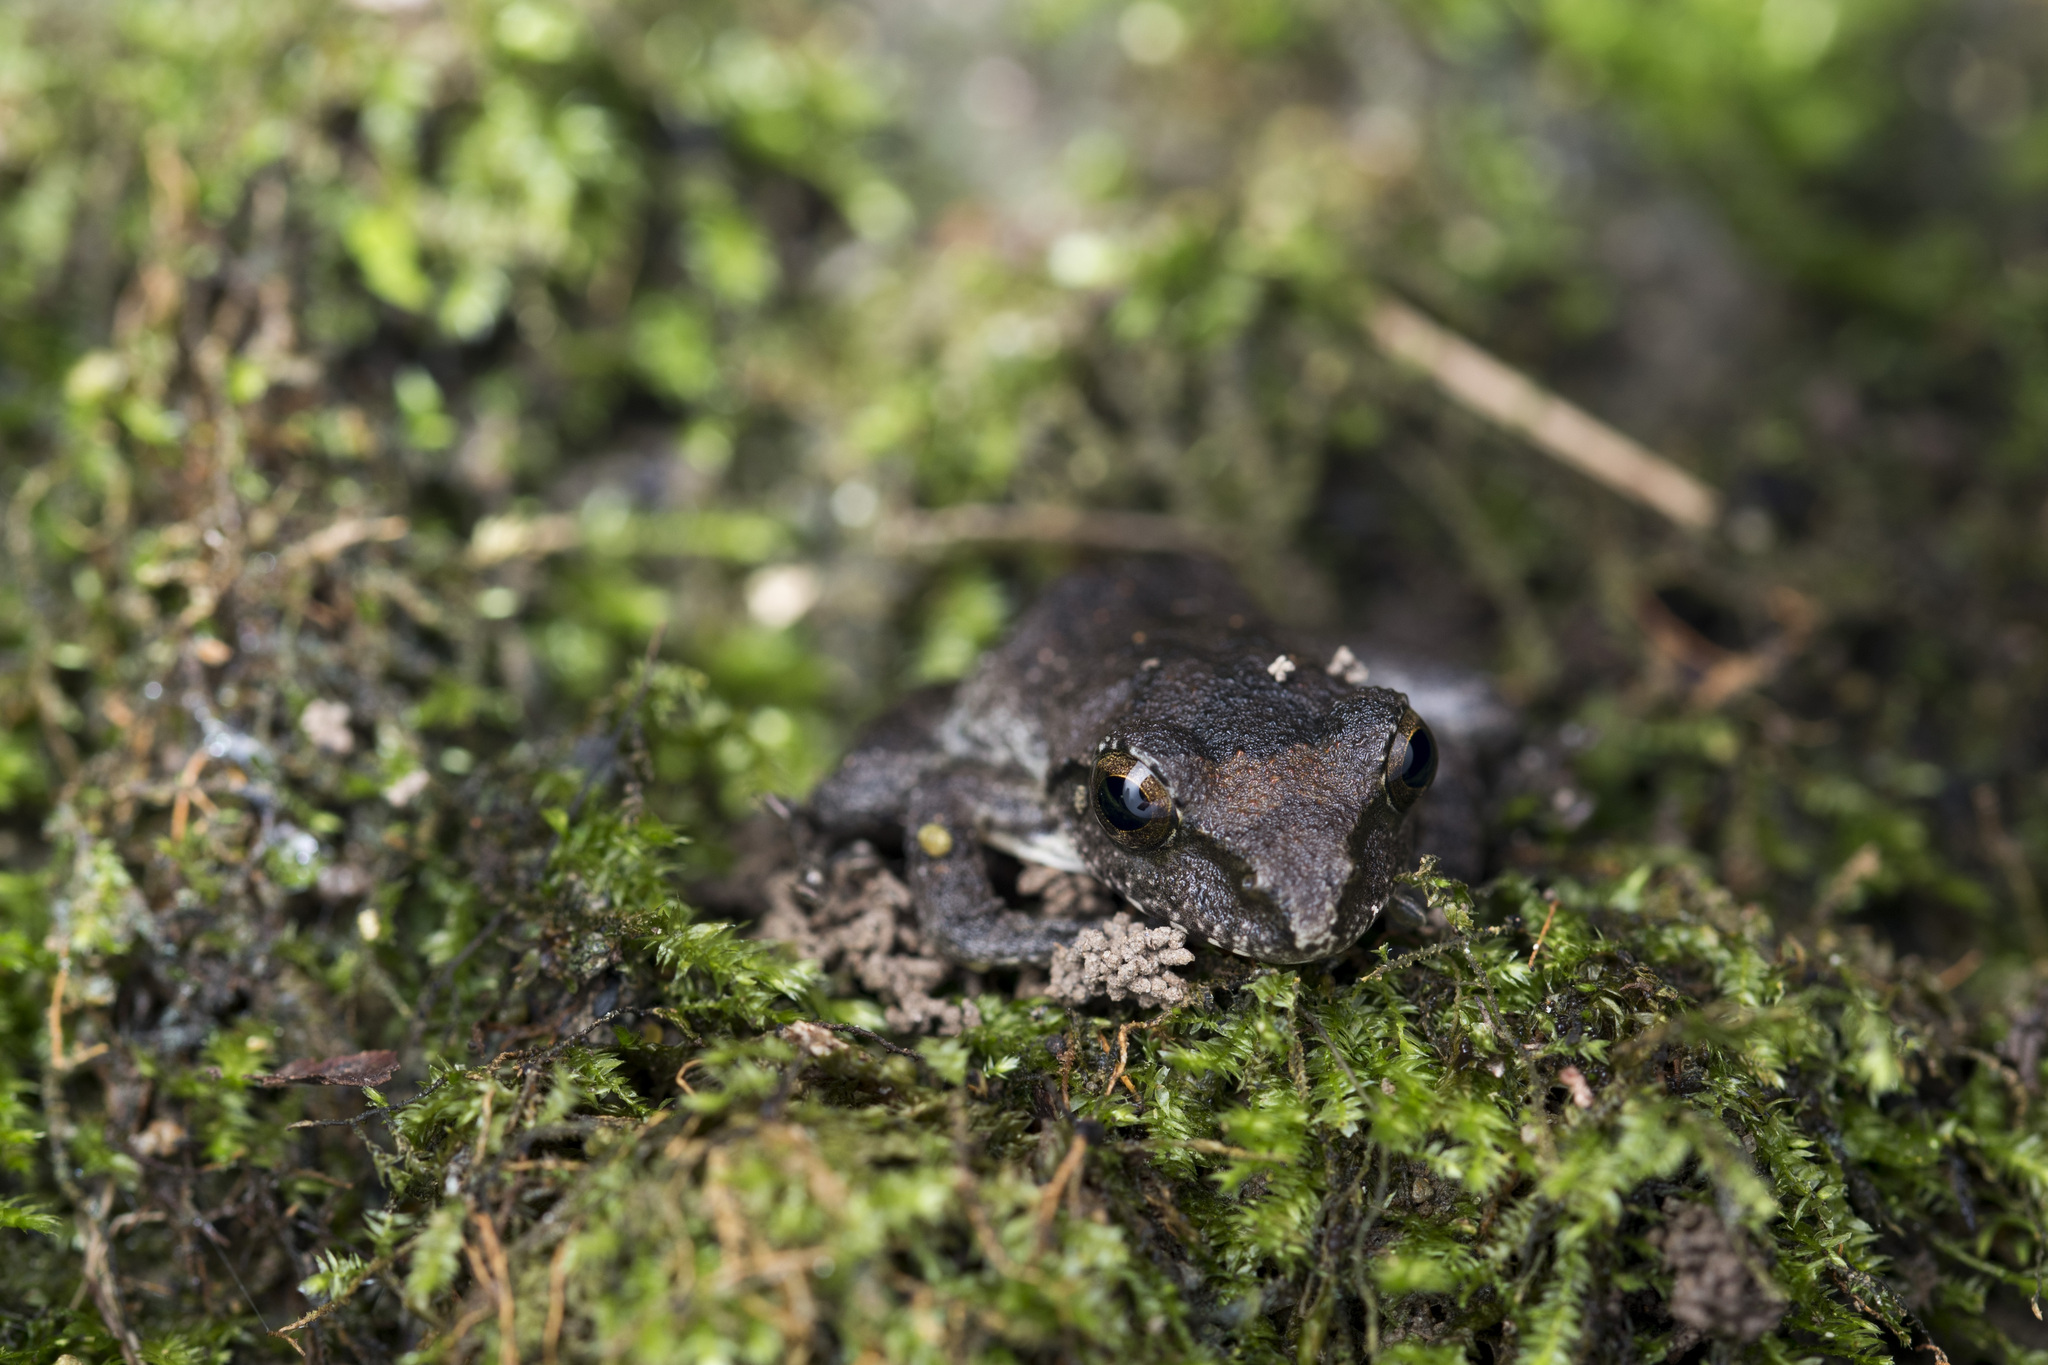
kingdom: Animalia
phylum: Chordata
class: Amphibia
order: Anura
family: Rhacophoridae
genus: Buergeria
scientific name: Buergeria robusta
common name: Brown treefrog
